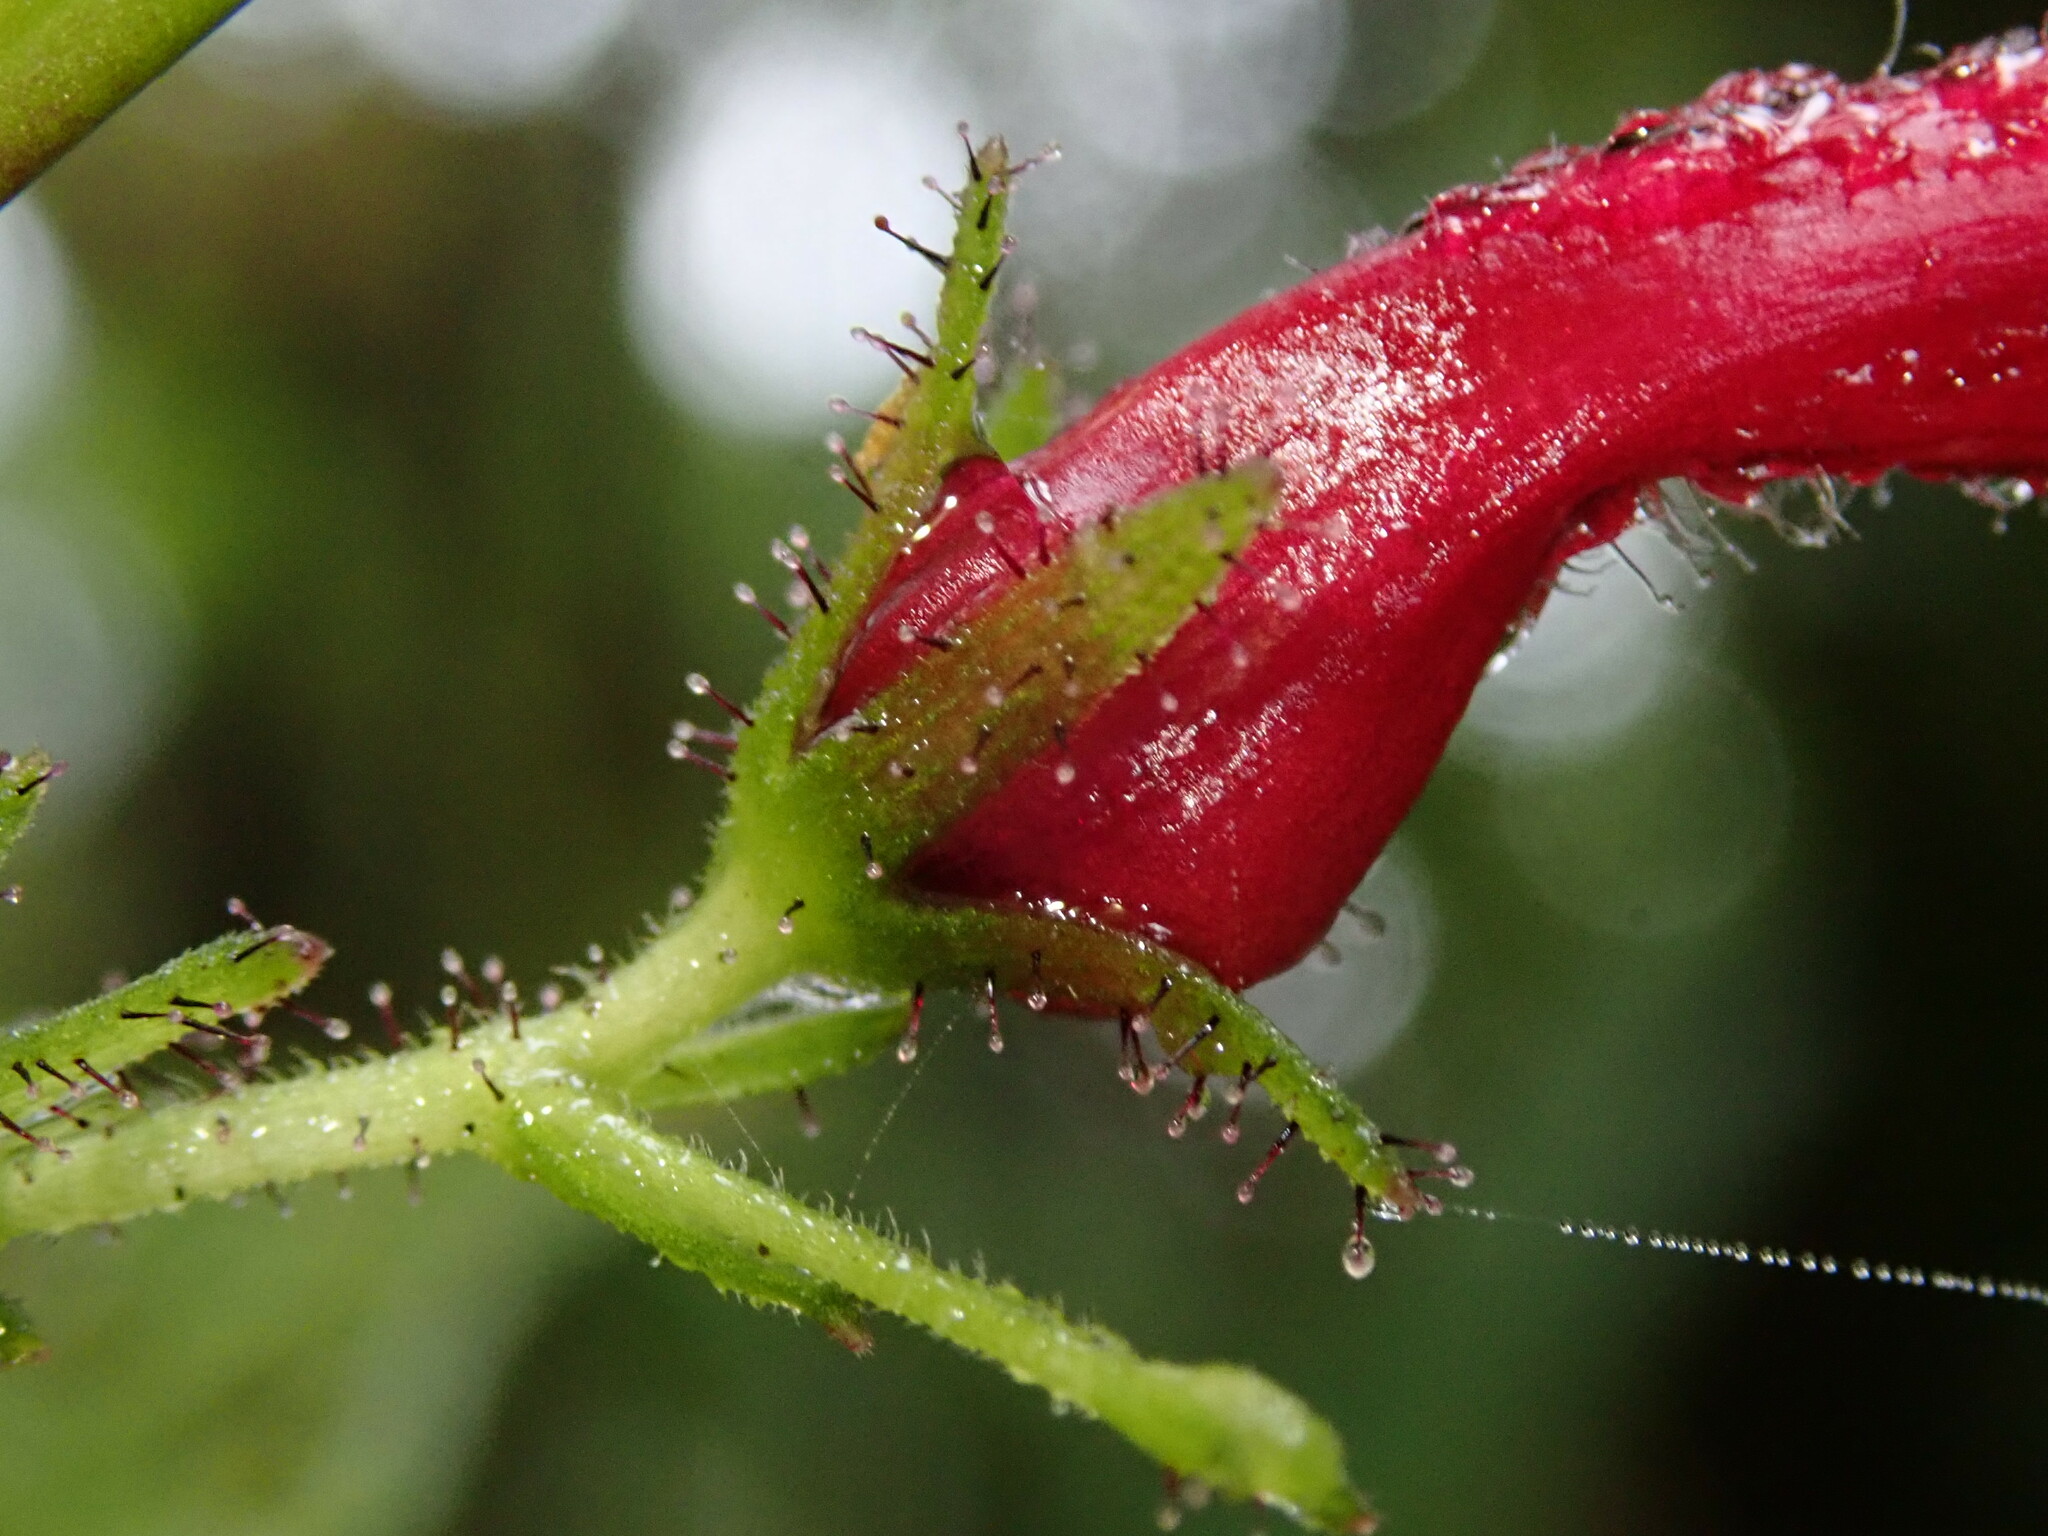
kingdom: Plantae
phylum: Tracheophyta
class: Magnoliopsida
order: Lamiales
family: Acanthaceae
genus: Stenostephanus
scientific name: Stenostephanus lugonis
